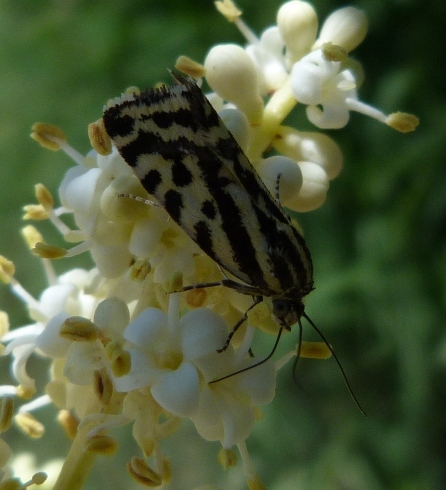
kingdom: Animalia
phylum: Arthropoda
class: Insecta
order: Lepidoptera
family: Noctuidae
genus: Acontia
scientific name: Acontia trabealis
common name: Spotted sulphur
